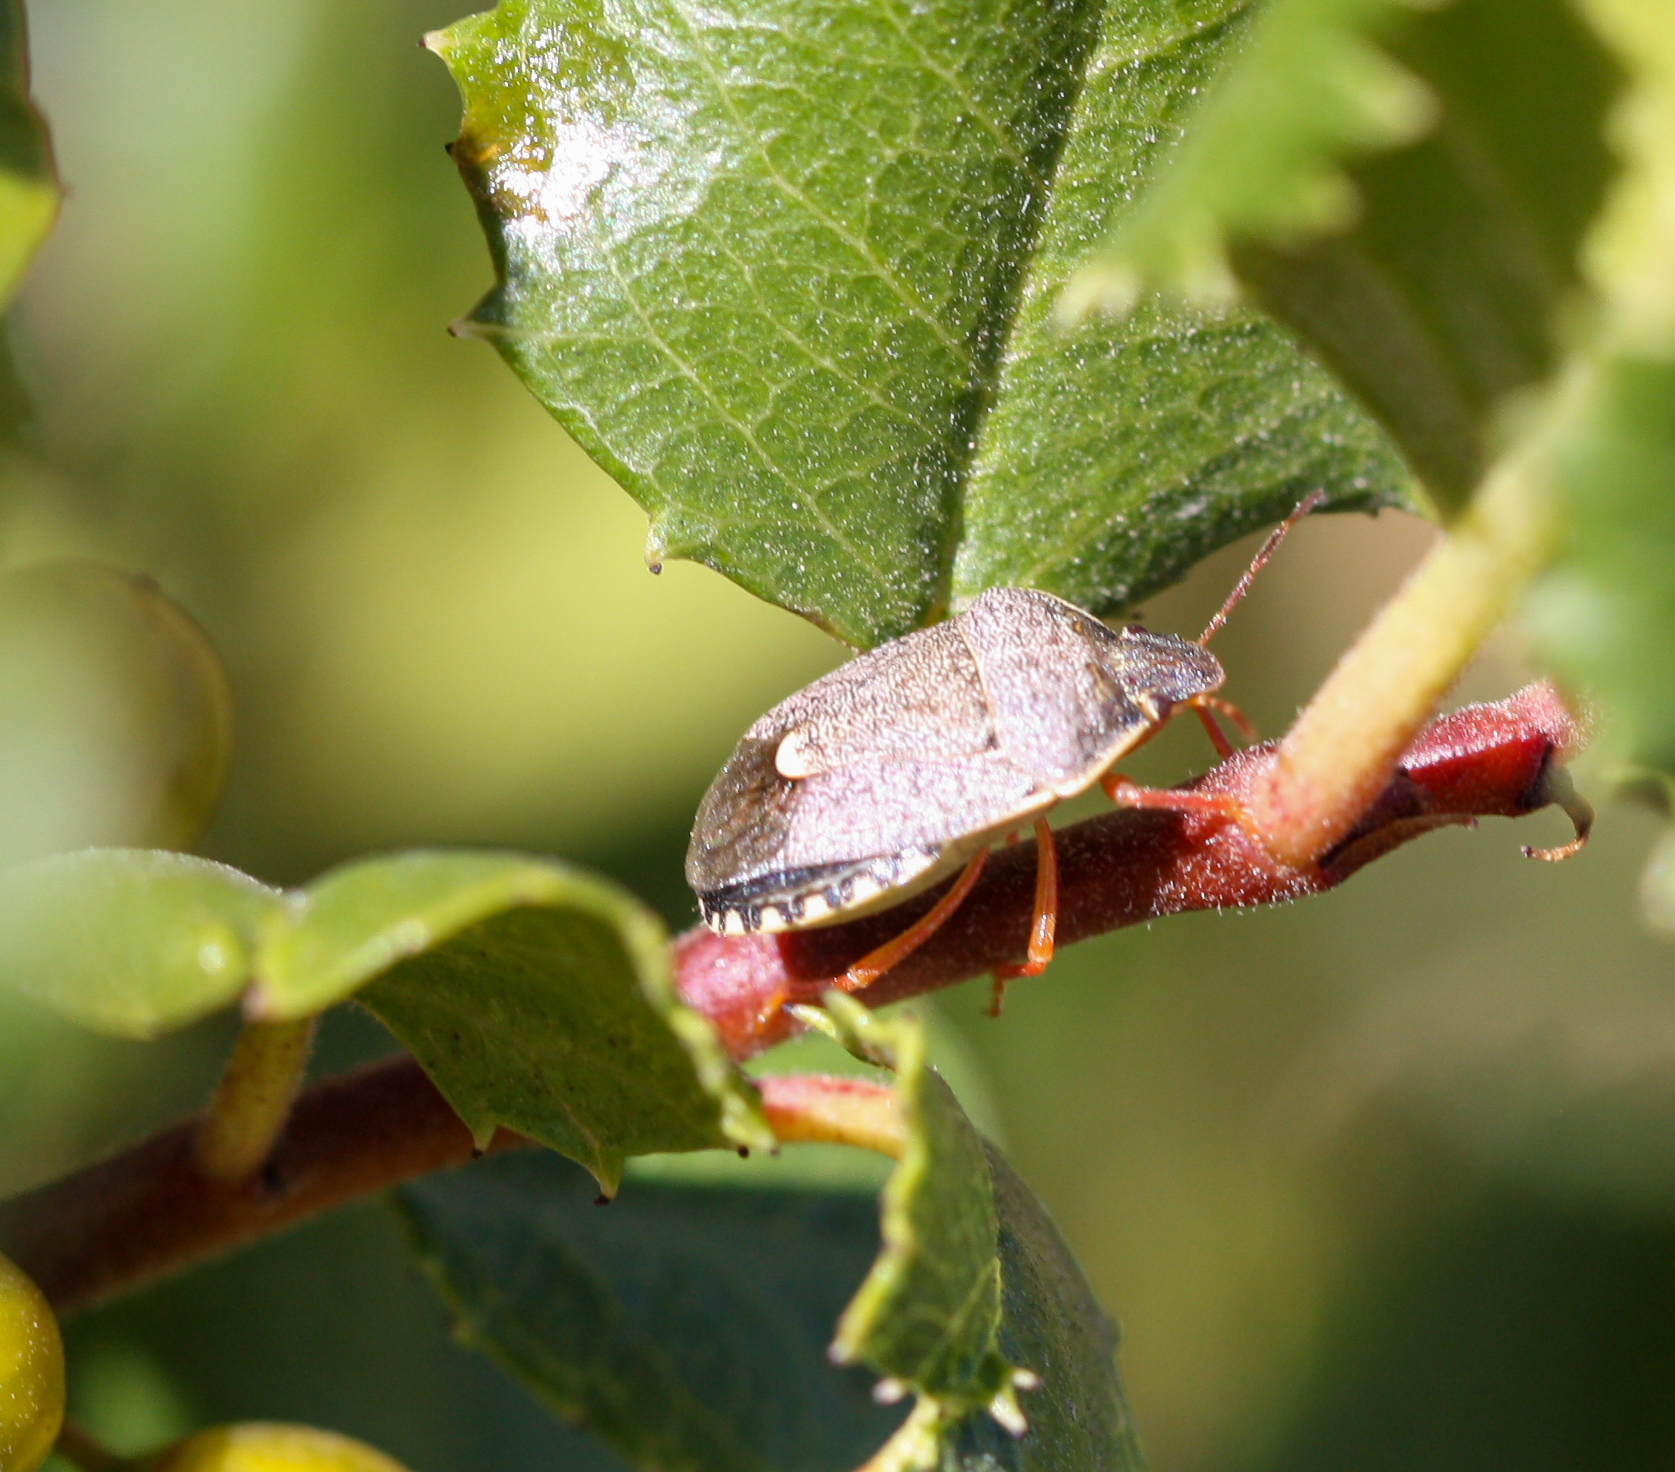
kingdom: Animalia
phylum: Arthropoda
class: Insecta
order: Hemiptera
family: Pentatomidae
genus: Holcostethus
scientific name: Holcostethus abbreviatus
